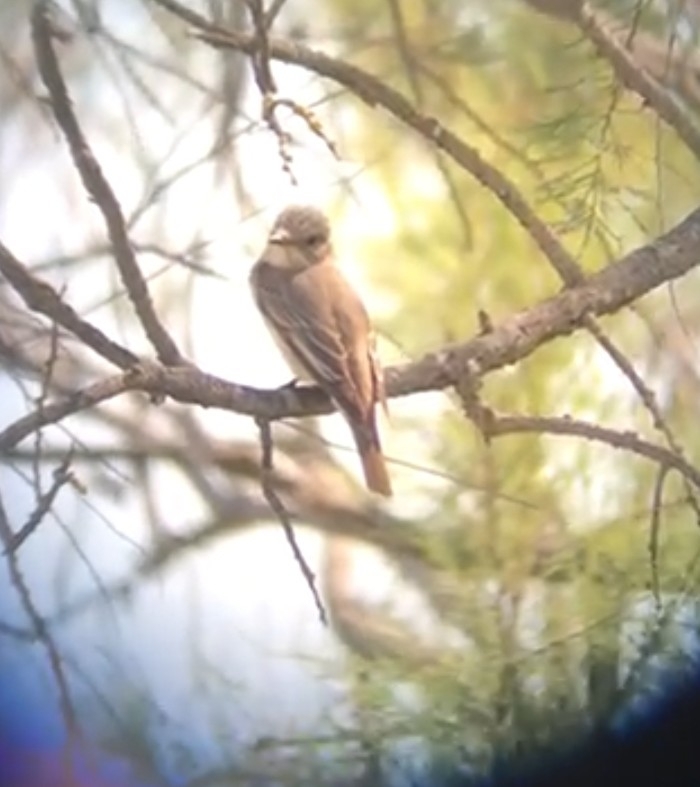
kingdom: Animalia
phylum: Chordata
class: Aves
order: Passeriformes
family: Muscicapidae
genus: Muscicapa
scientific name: Muscicapa striata
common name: Spotted flycatcher
